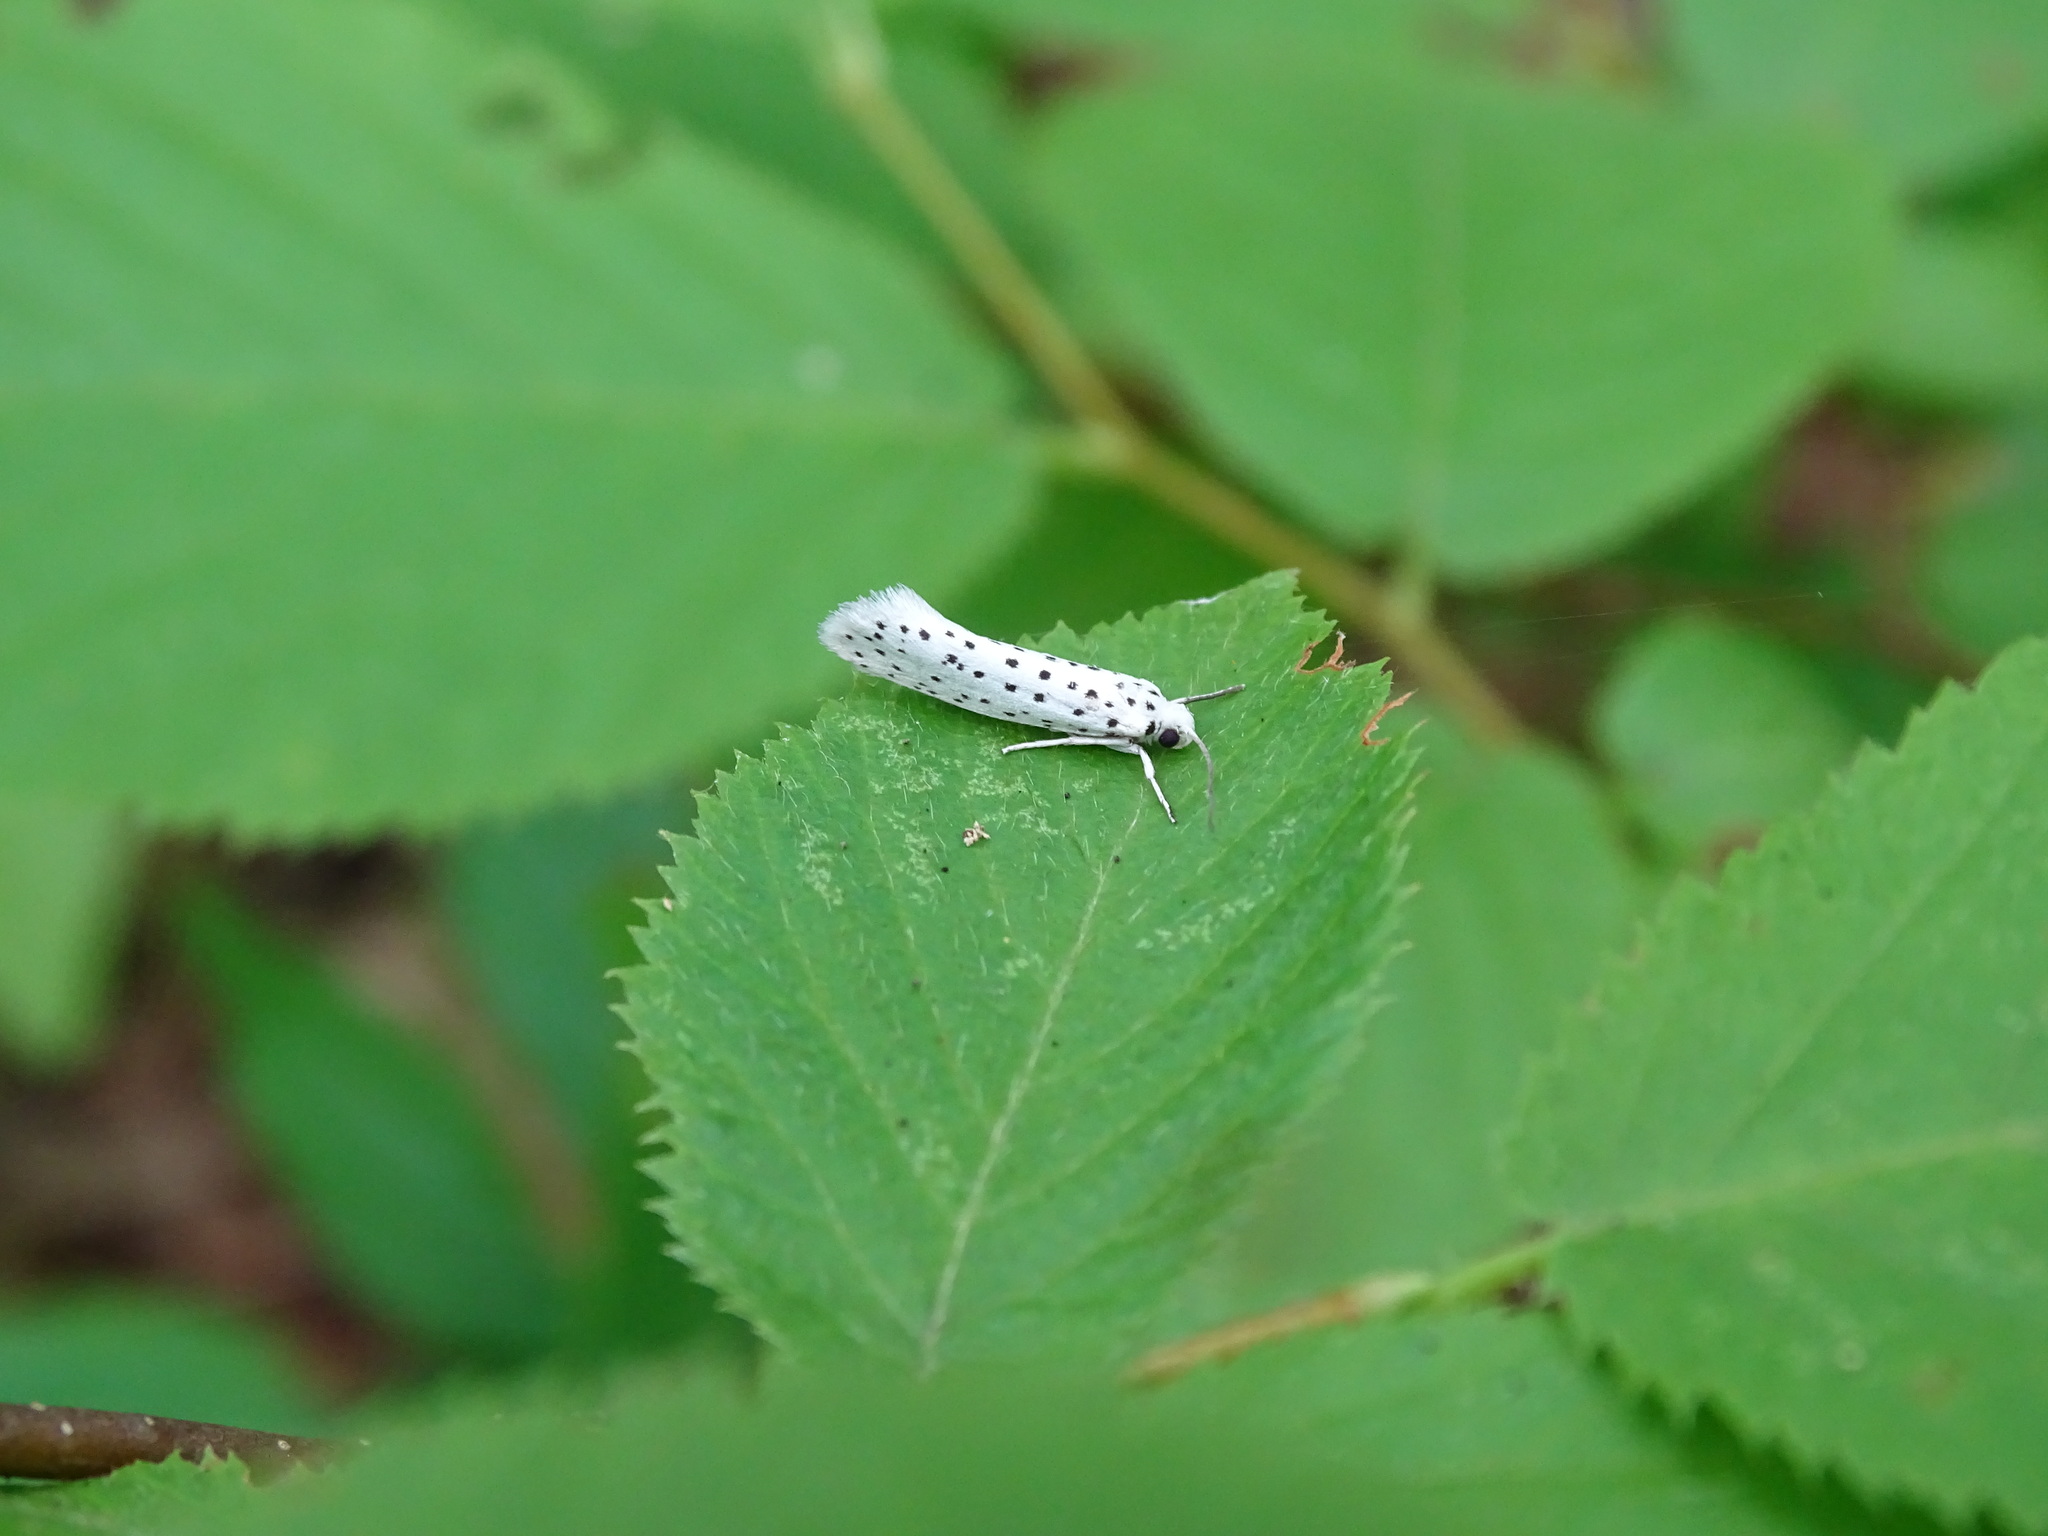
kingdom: Animalia
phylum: Arthropoda
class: Insecta
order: Lepidoptera
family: Yponomeutidae
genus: Yponomeuta
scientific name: Yponomeuta multipunctella
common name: American ermine moth
